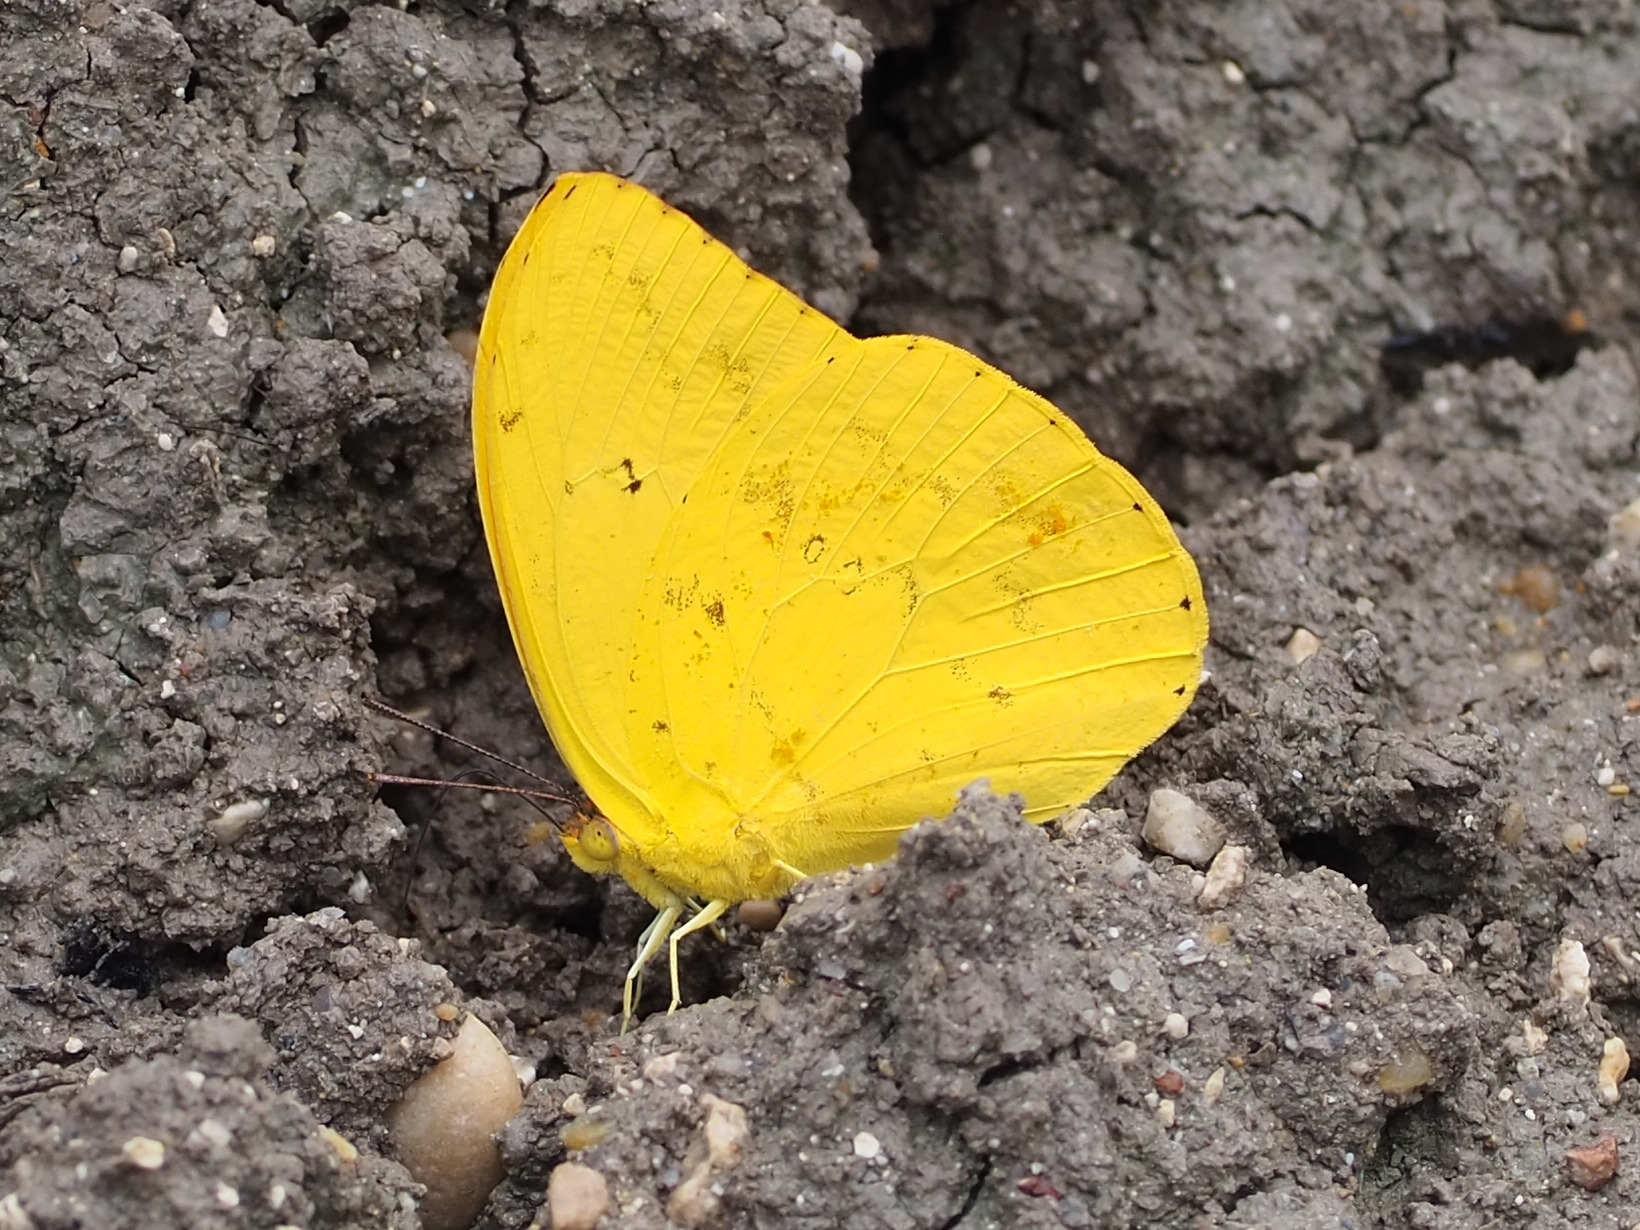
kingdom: Animalia
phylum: Arthropoda
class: Insecta
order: Lepidoptera
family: Pieridae
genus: Phoebis
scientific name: Phoebis argante
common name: Apricot sulphur
